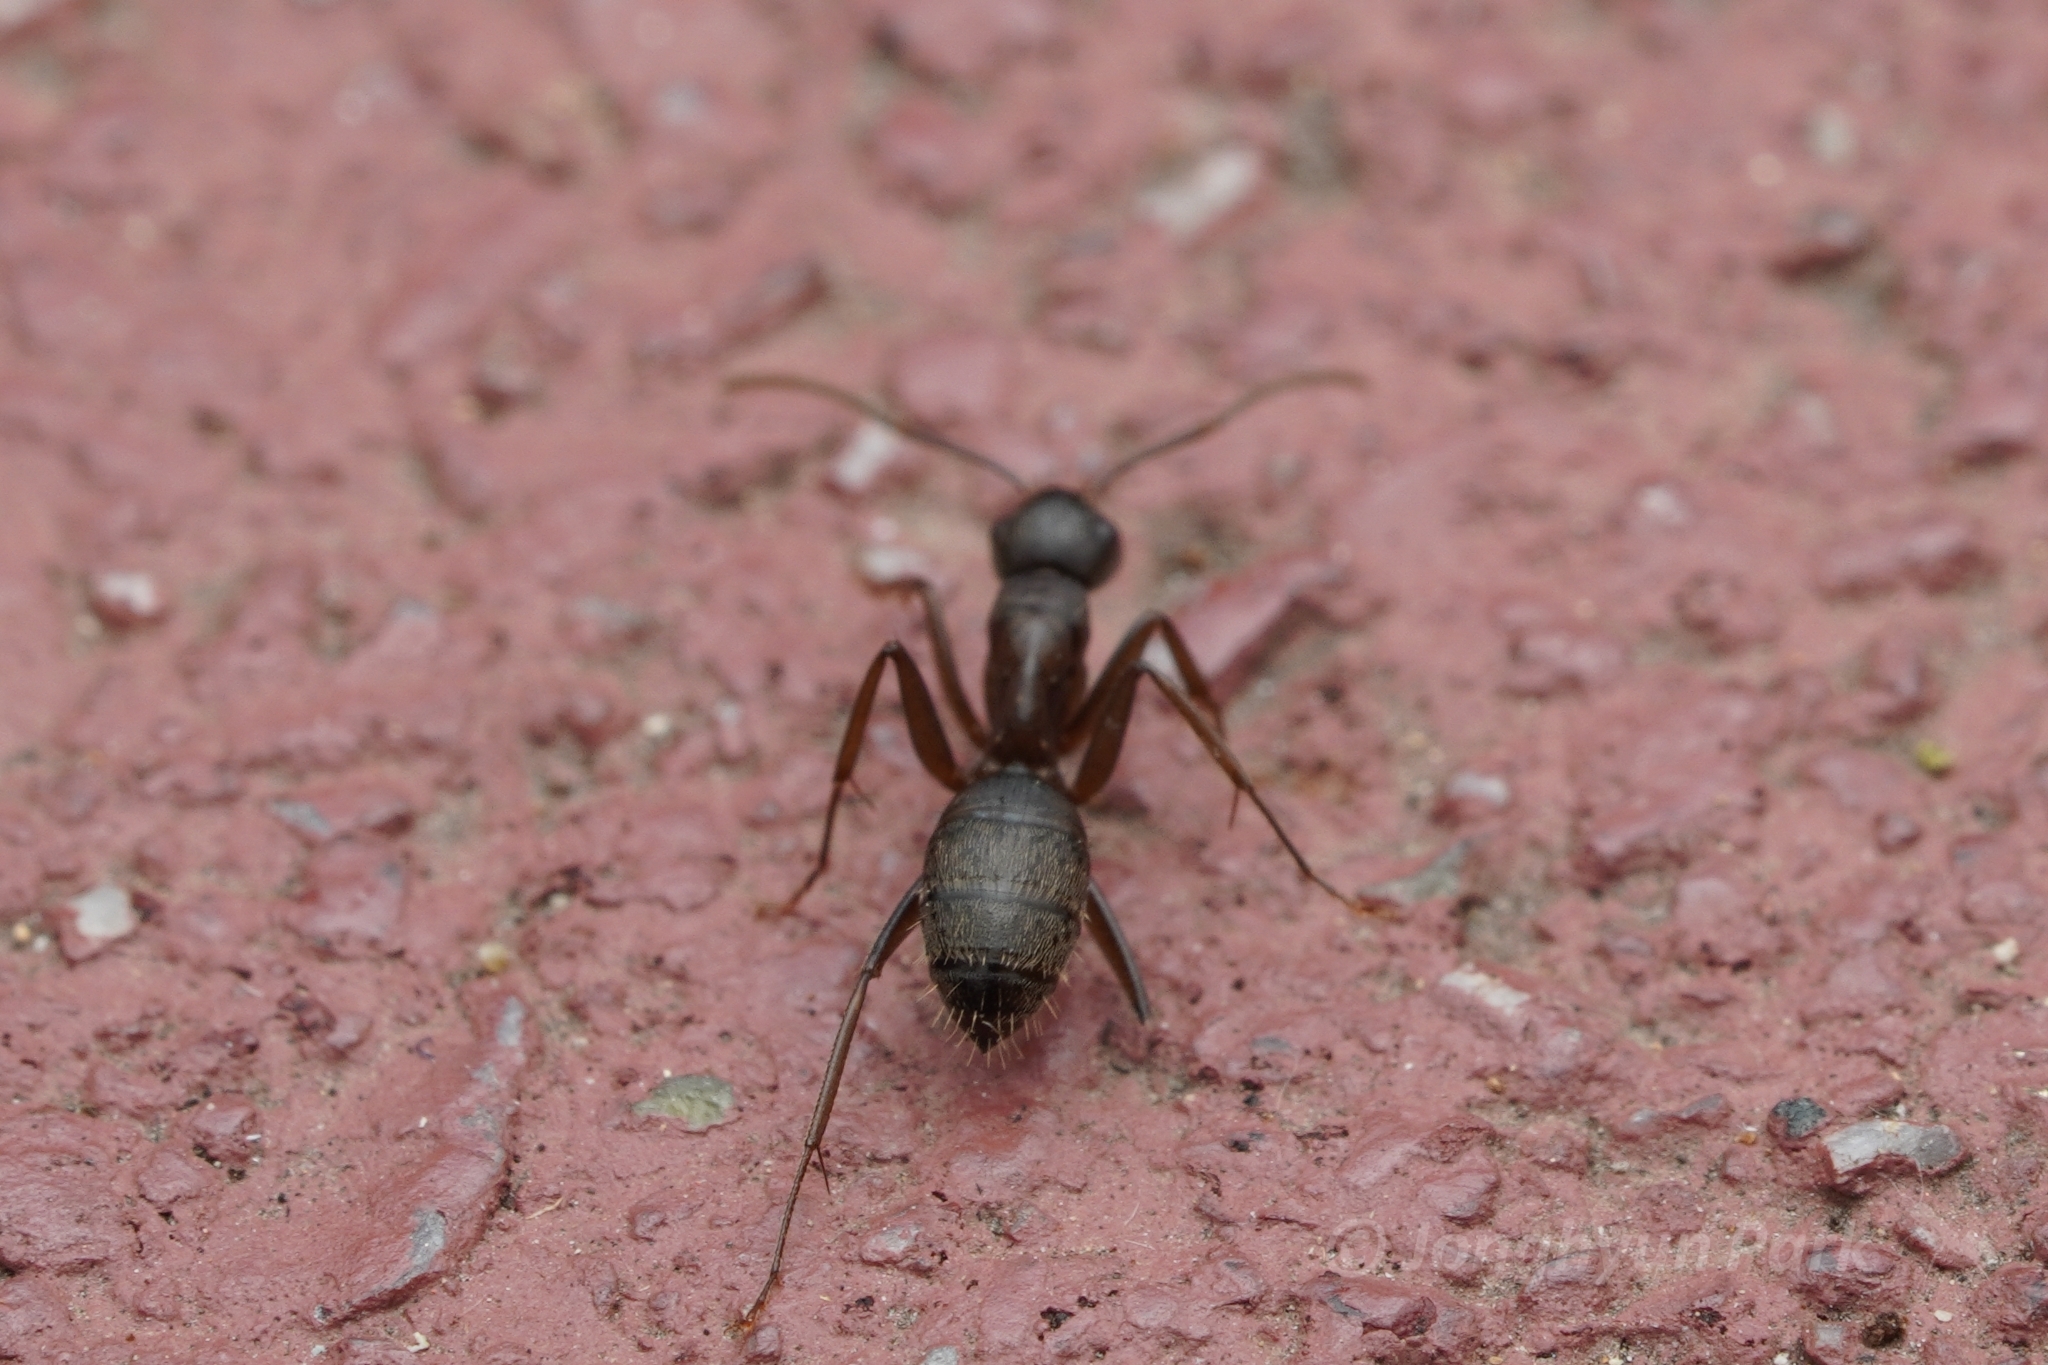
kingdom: Animalia
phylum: Arthropoda
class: Insecta
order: Hymenoptera
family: Formicidae
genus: Camponotus
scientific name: Camponotus chromaiodes
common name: Red carpenter ant
